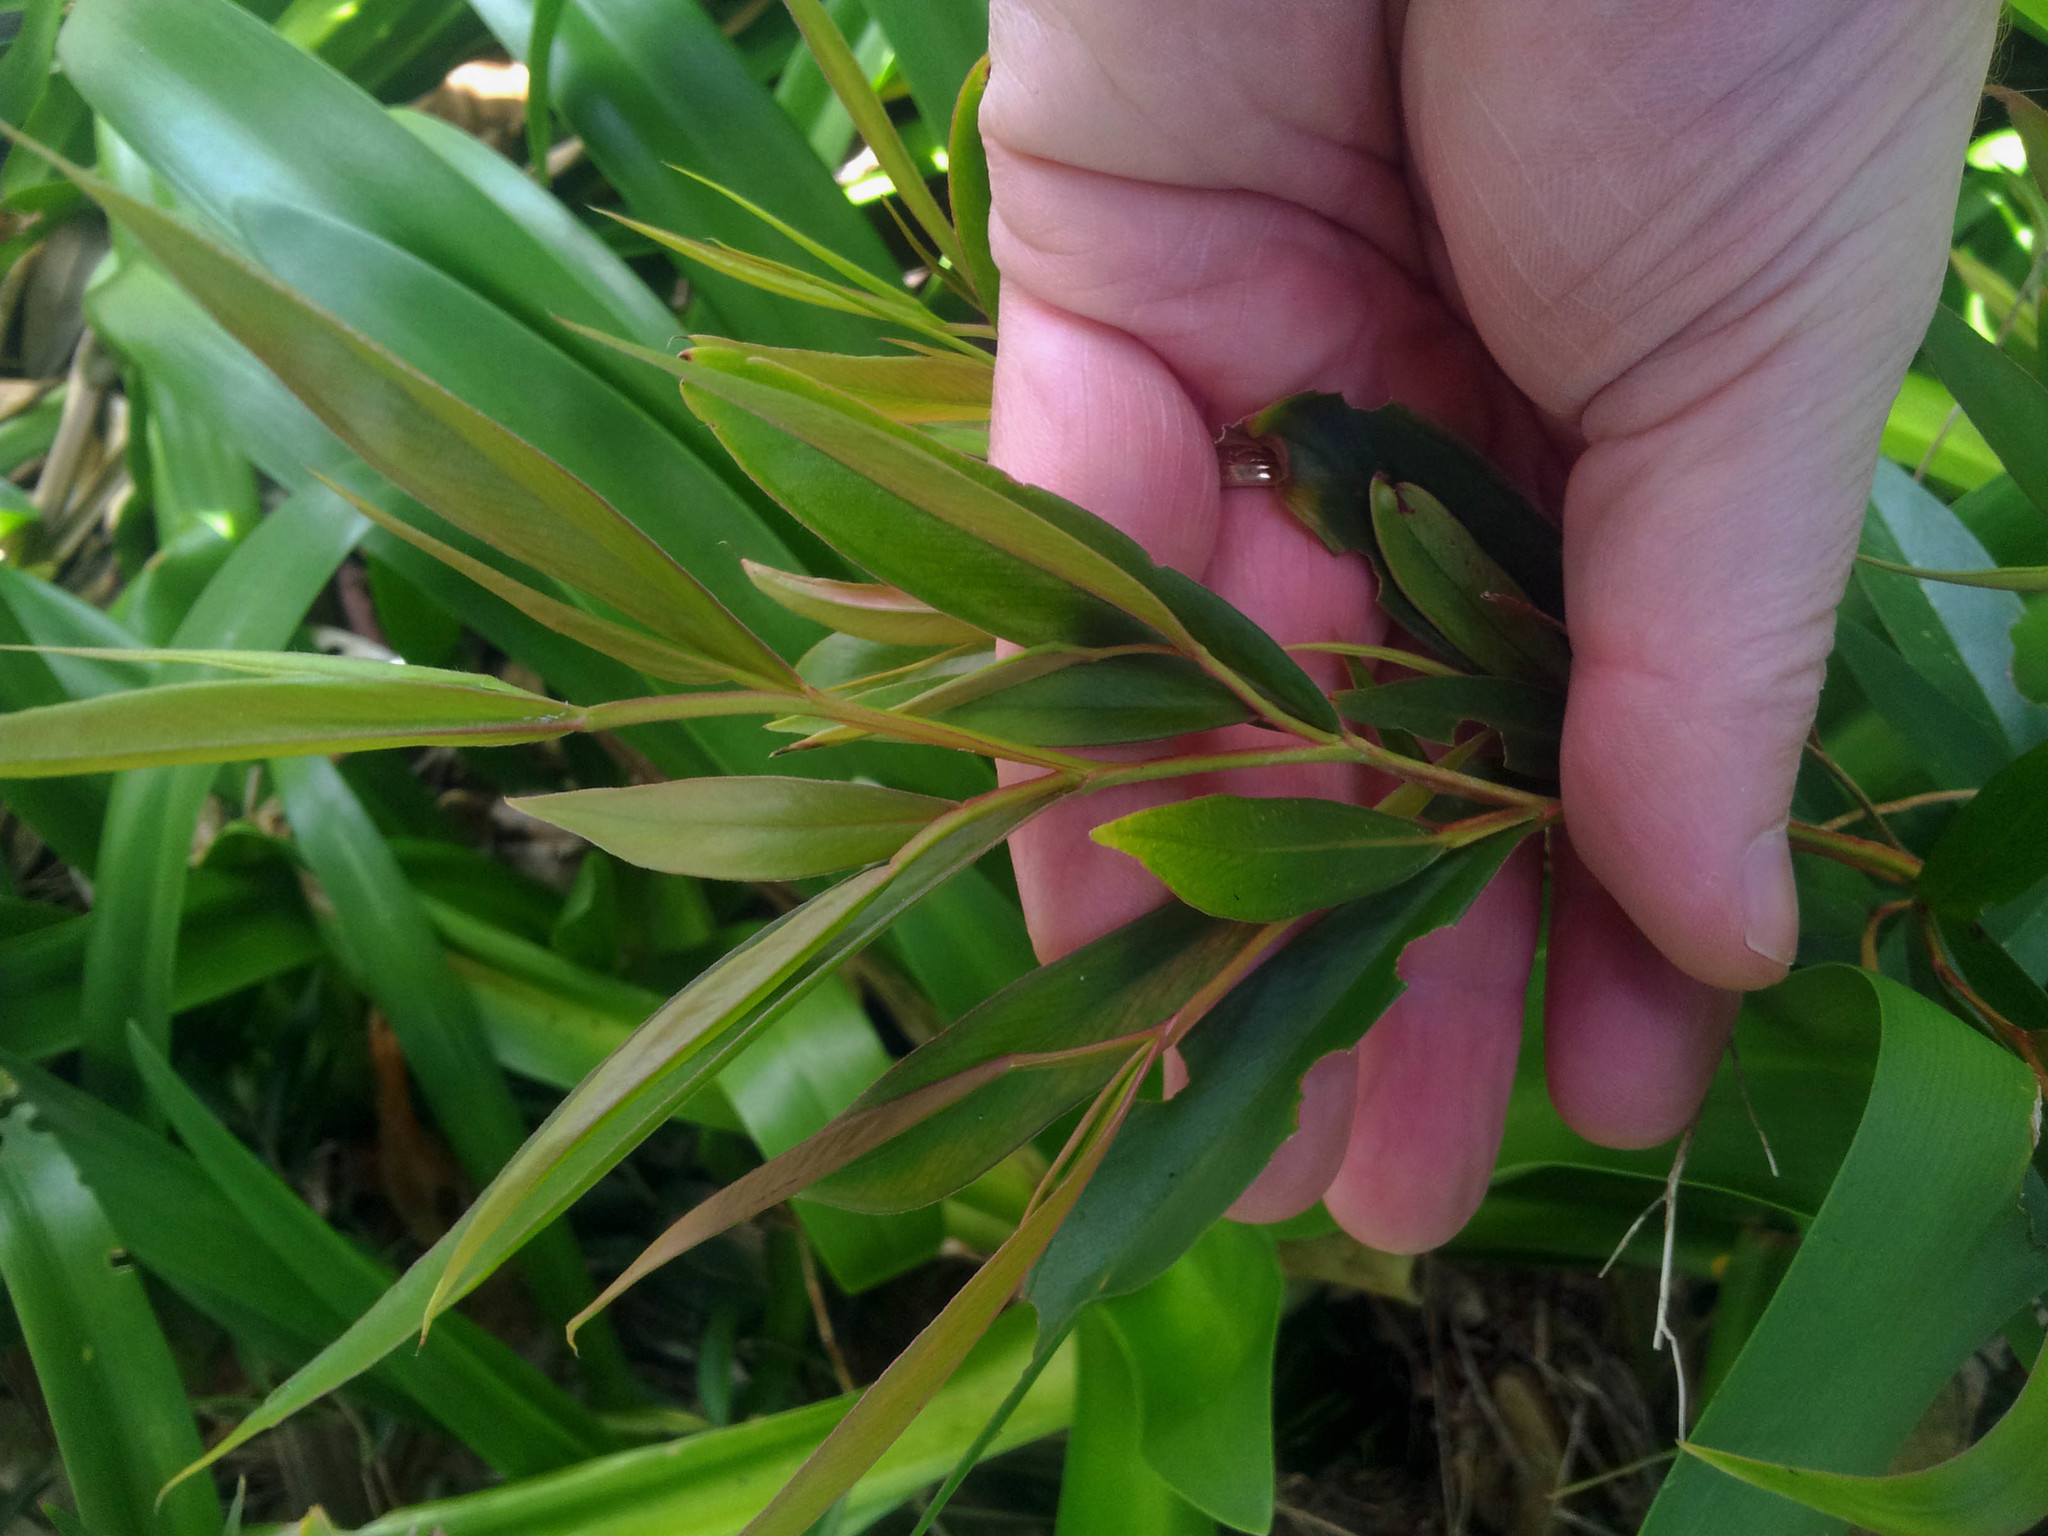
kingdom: Plantae
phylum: Tracheophyta
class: Magnoliopsida
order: Myrtales
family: Myrtaceae
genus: Agonis
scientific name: Agonis flexuosa
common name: Willow myrtle
